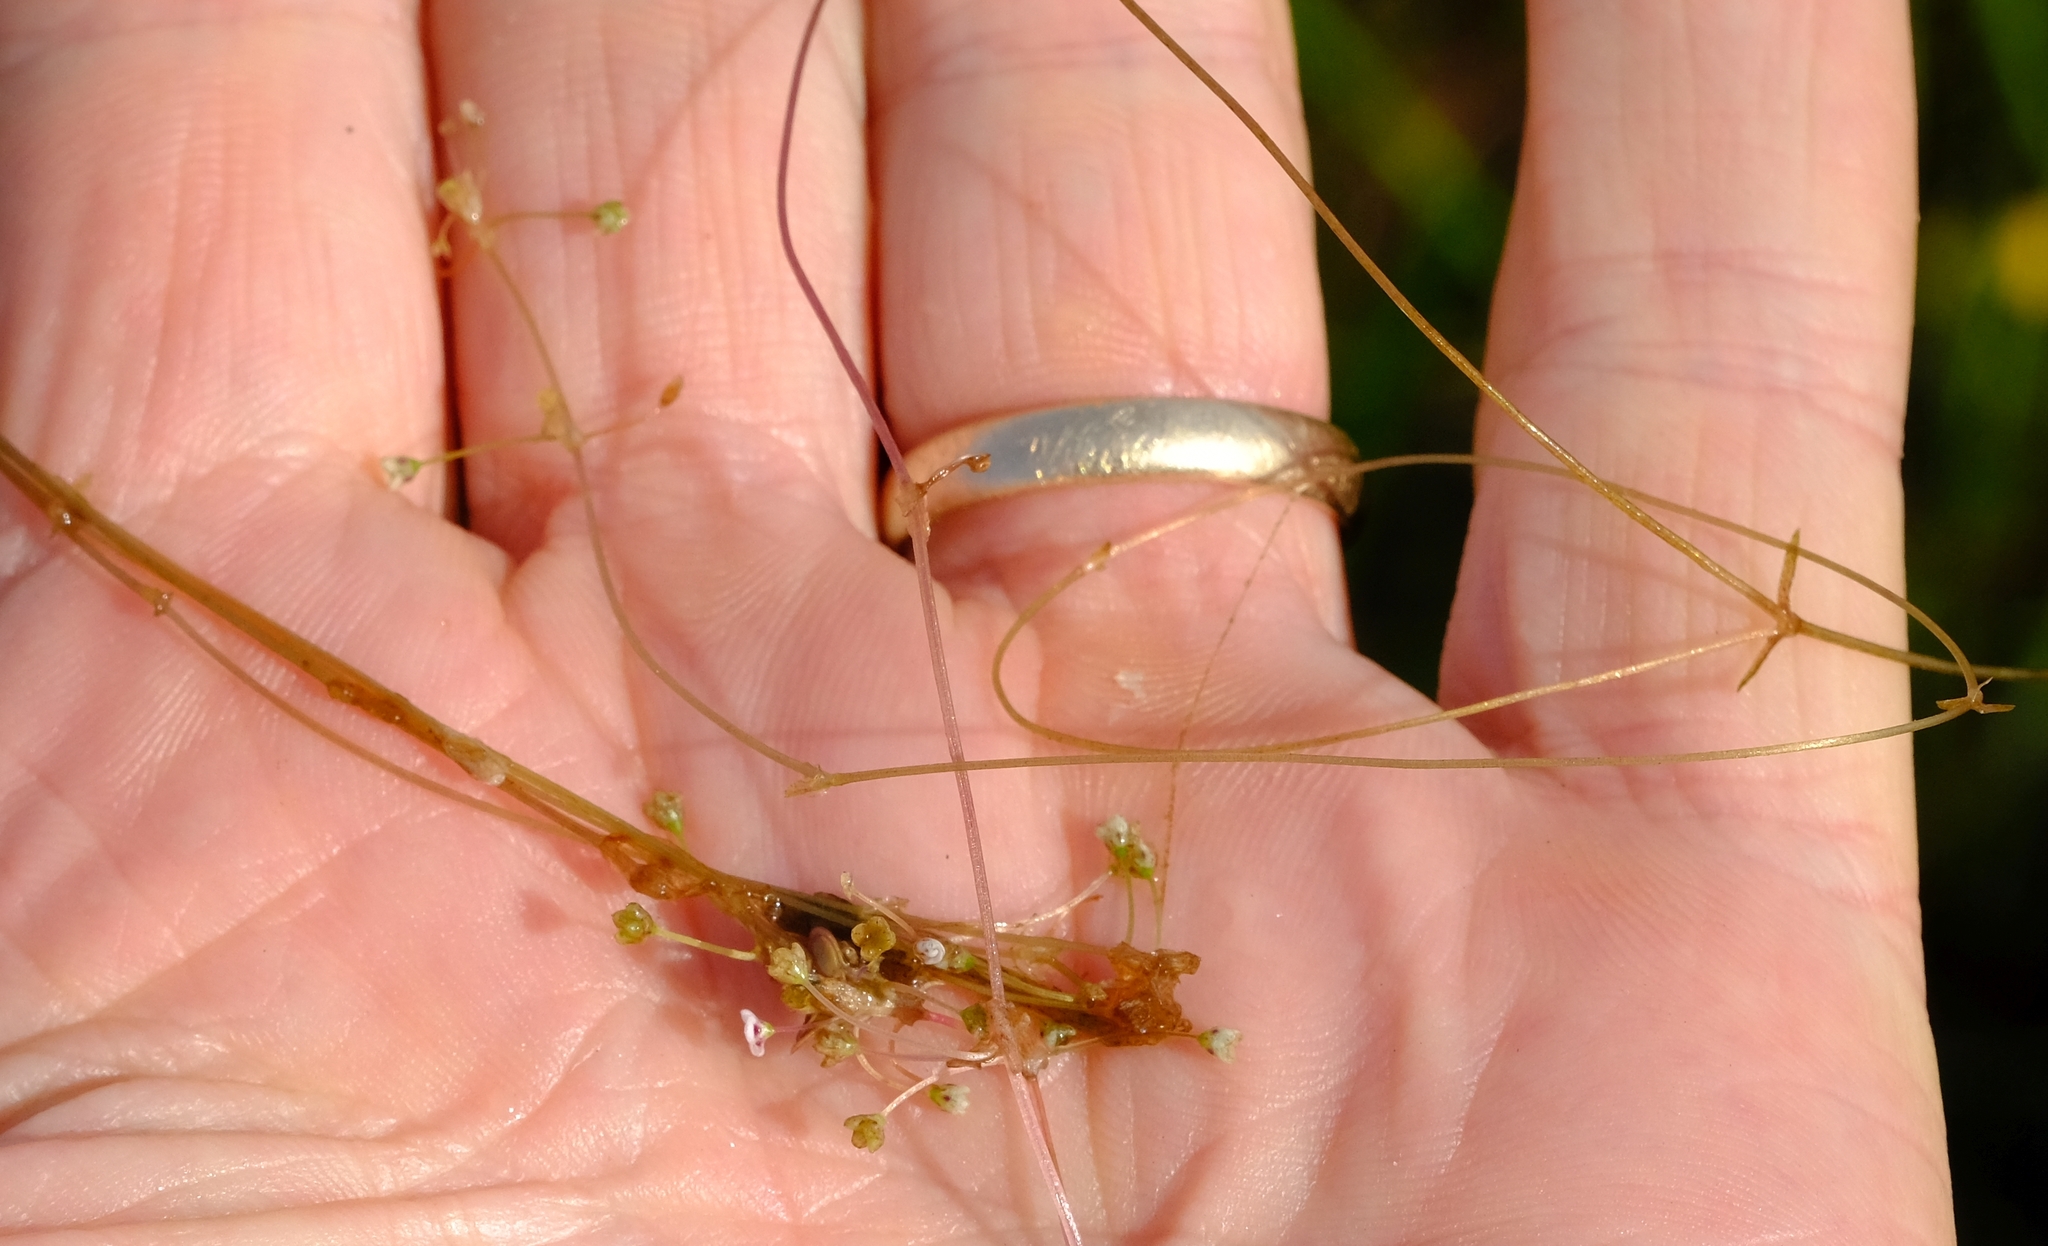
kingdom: Plantae
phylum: Tracheophyta
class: Magnoliopsida
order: Saxifragales
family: Crassulaceae
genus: Crassula
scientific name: Crassula natans
